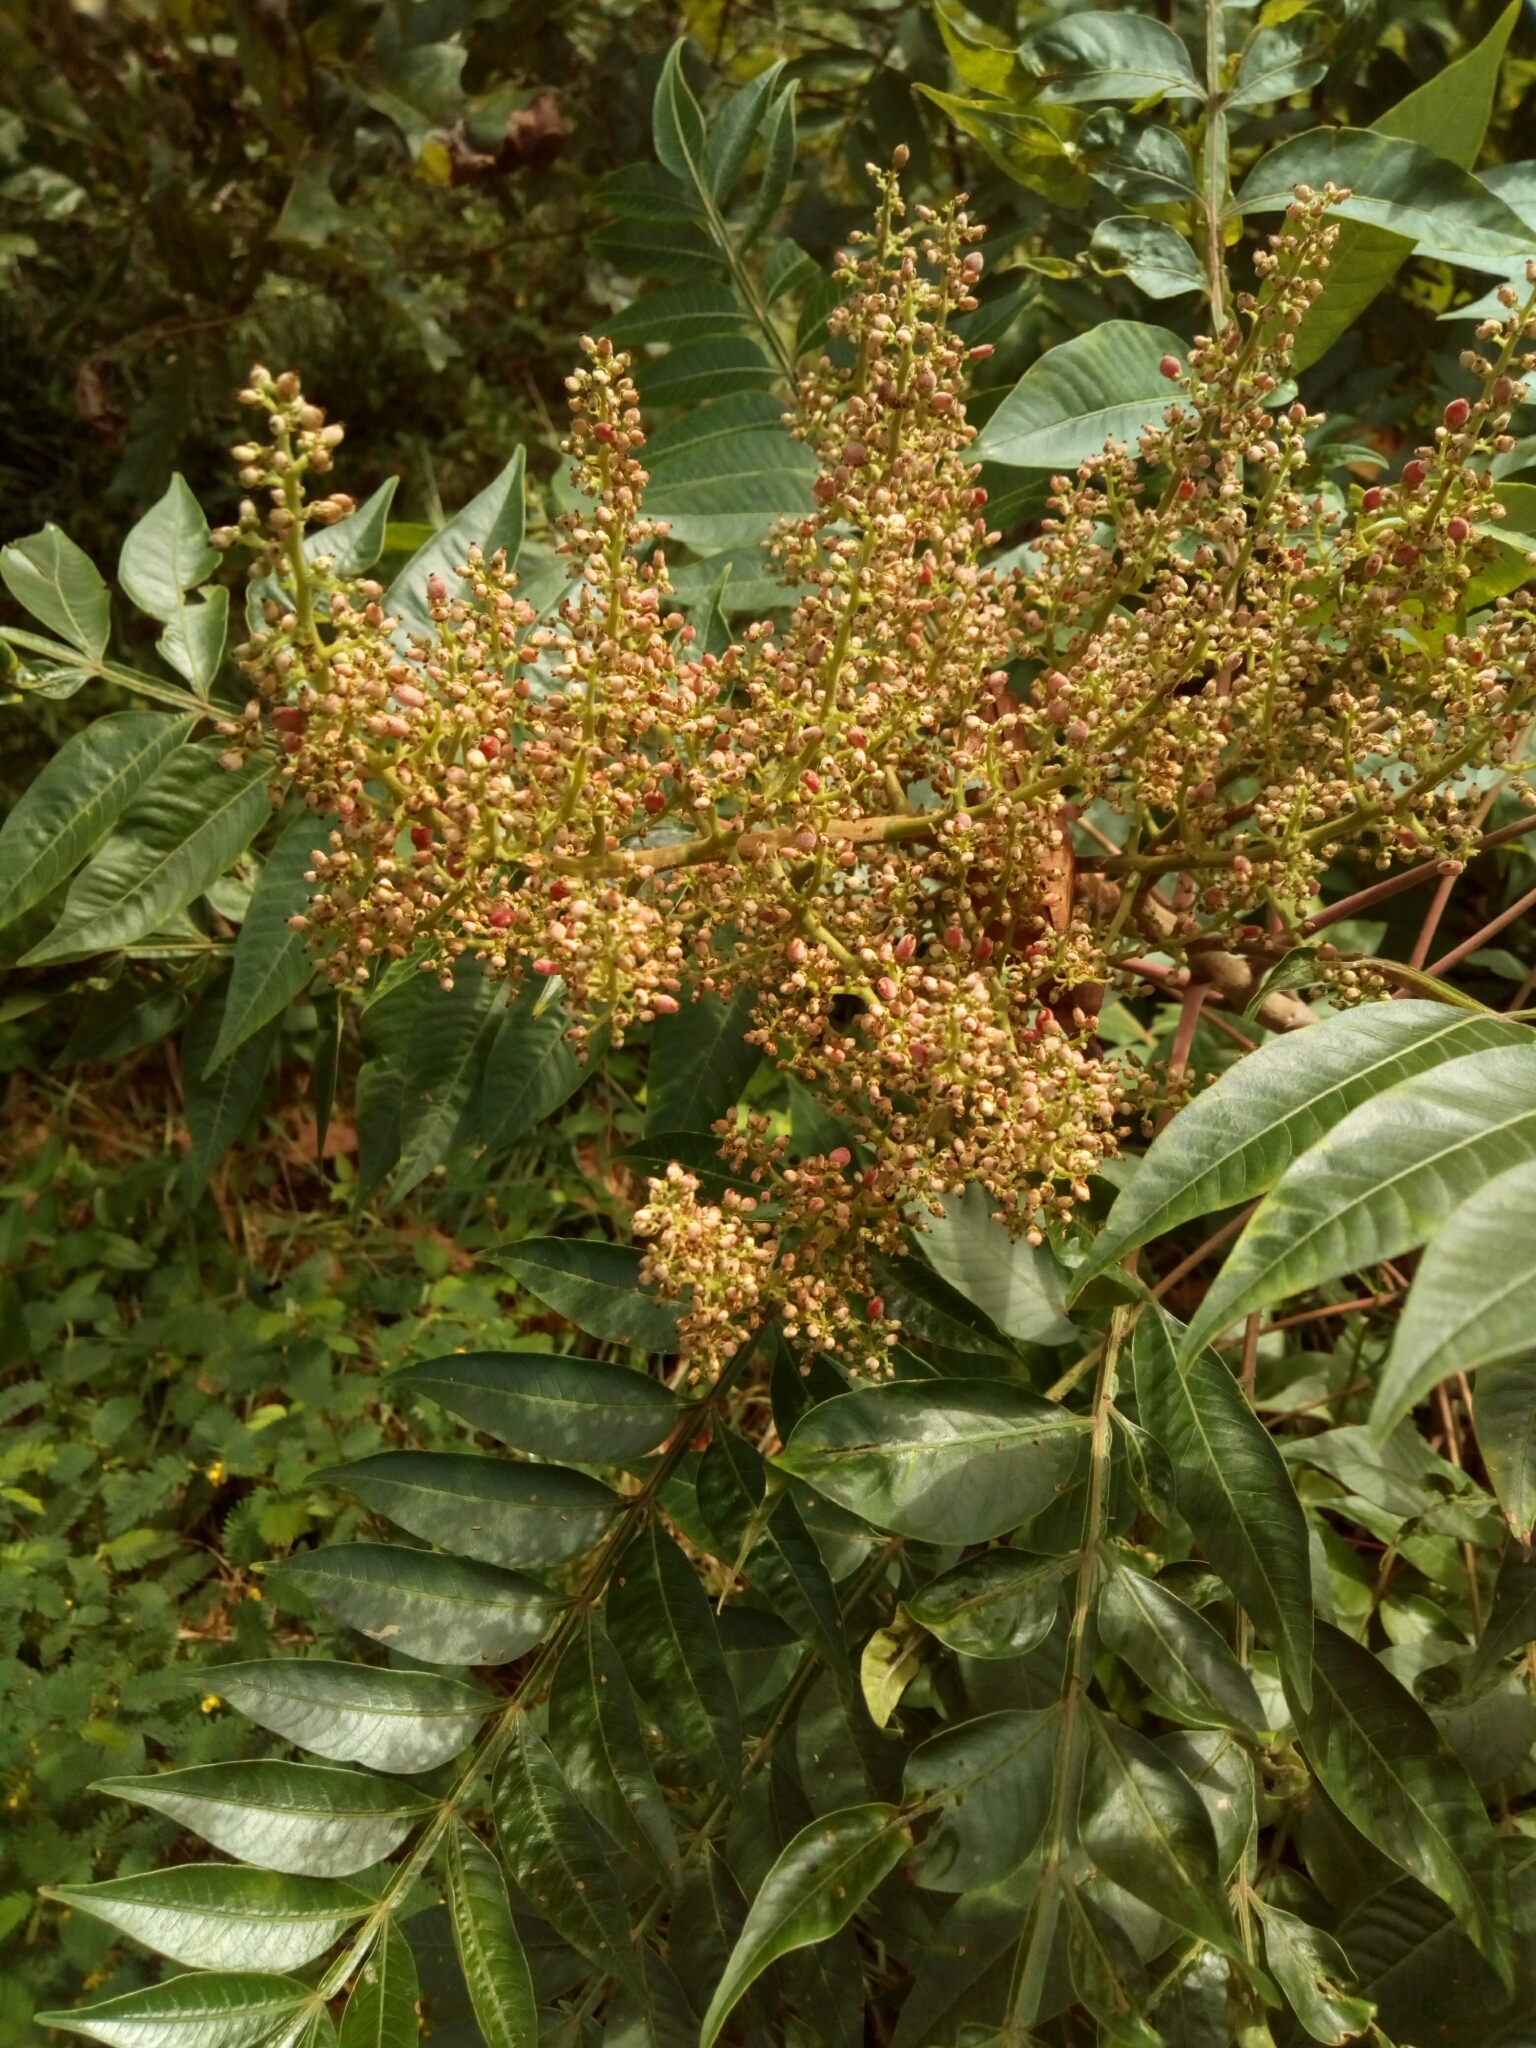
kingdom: Plantae
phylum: Tracheophyta
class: Magnoliopsida
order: Sapindales
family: Anacardiaceae
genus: Rhus
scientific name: Rhus copallina
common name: Shining sumac
